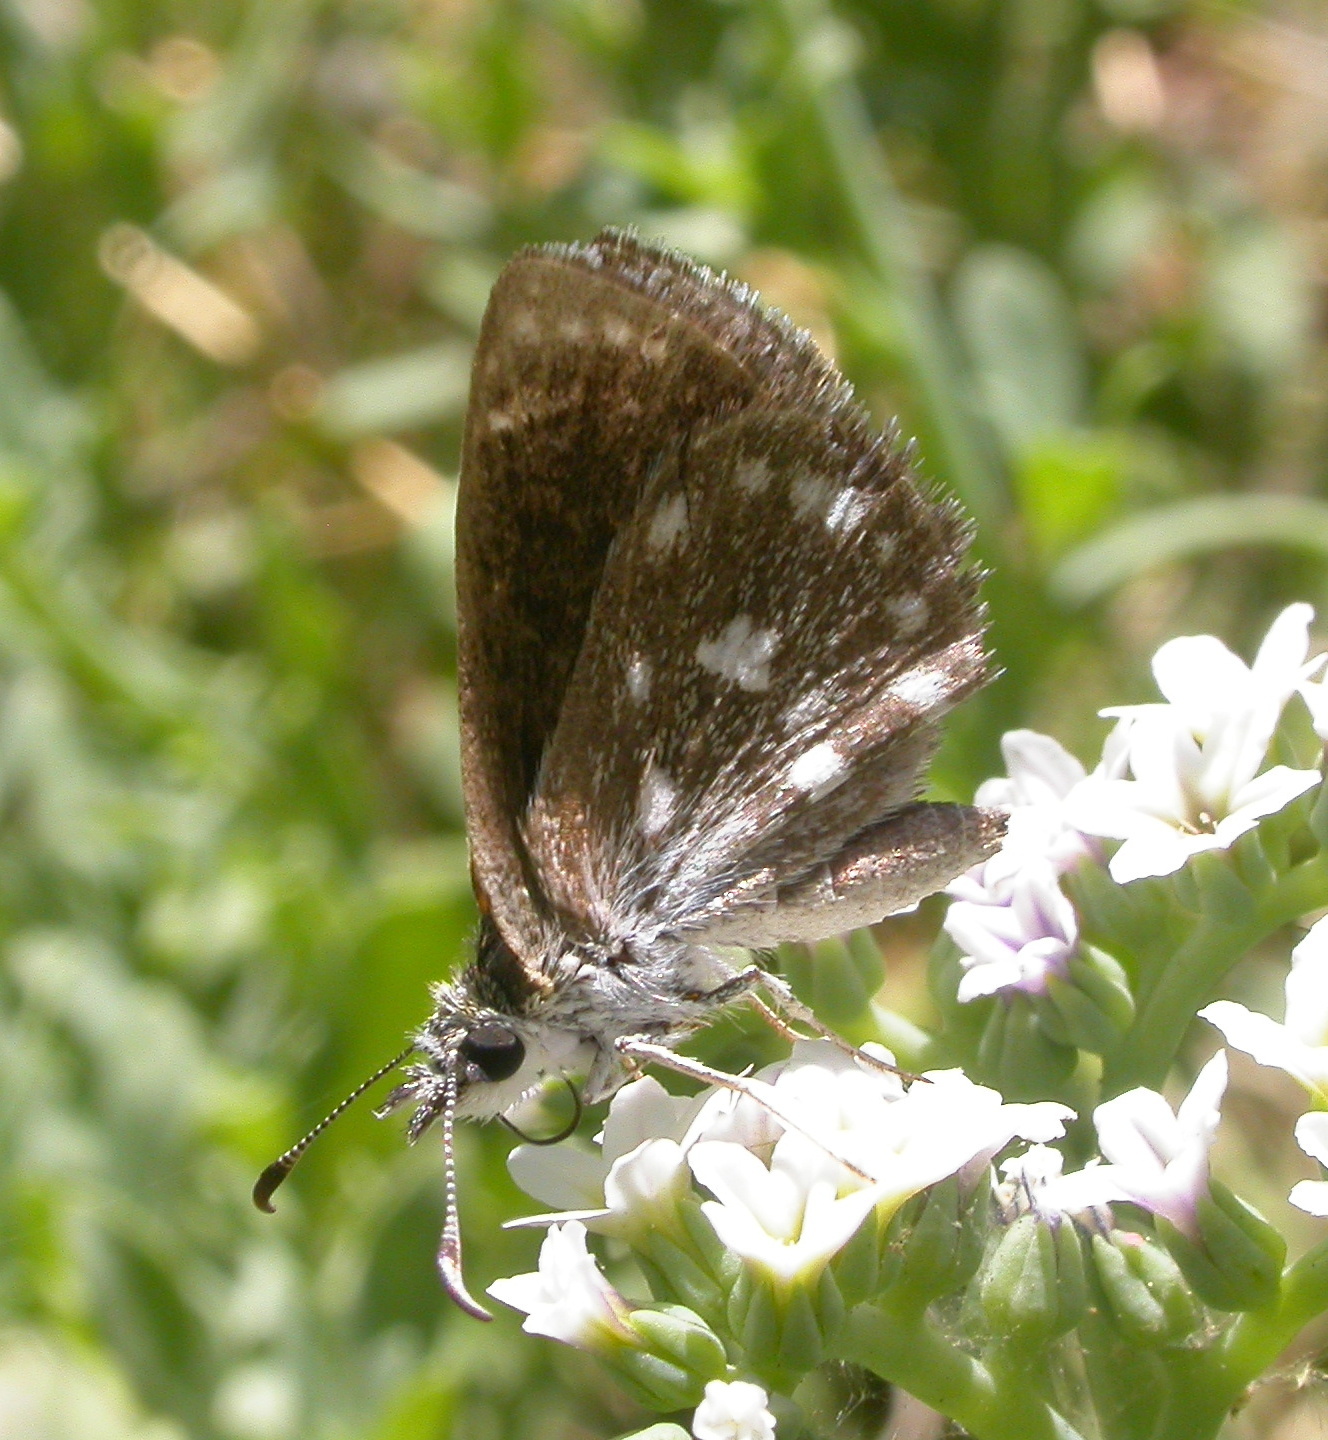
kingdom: Animalia
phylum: Arthropoda
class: Insecta
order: Lepidoptera
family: Hesperiidae
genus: Pholisora
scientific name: Pholisora libya
